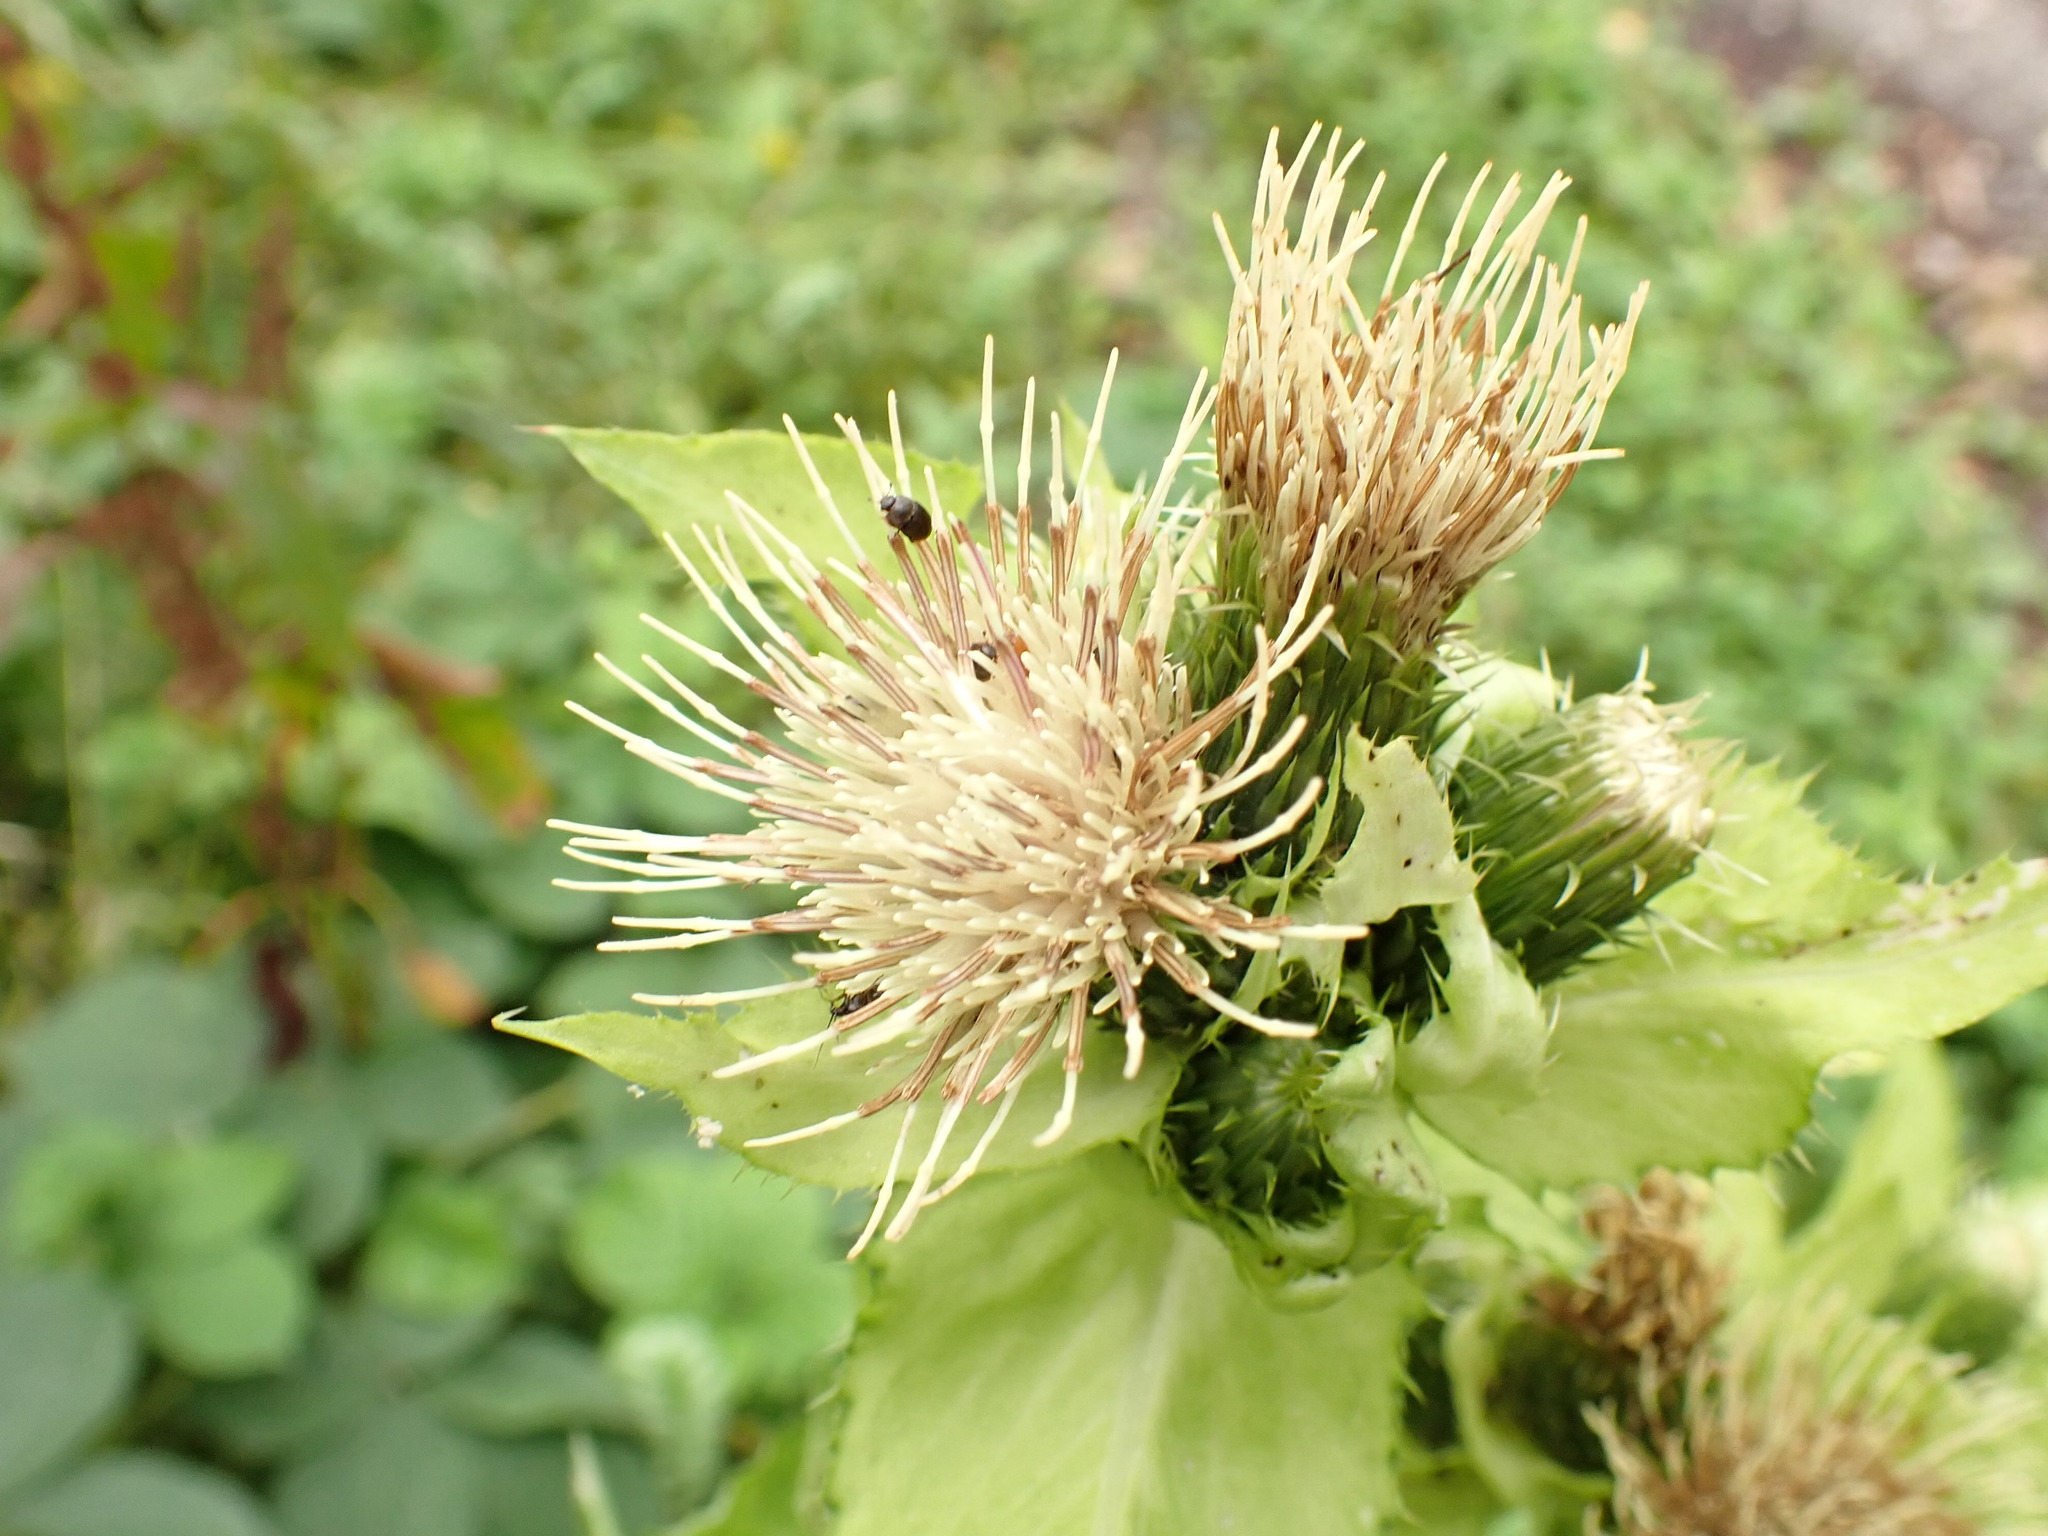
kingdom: Plantae
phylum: Tracheophyta
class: Magnoliopsida
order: Asterales
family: Asteraceae
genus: Cirsium
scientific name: Cirsium oleraceum
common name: Cabbage thistle
